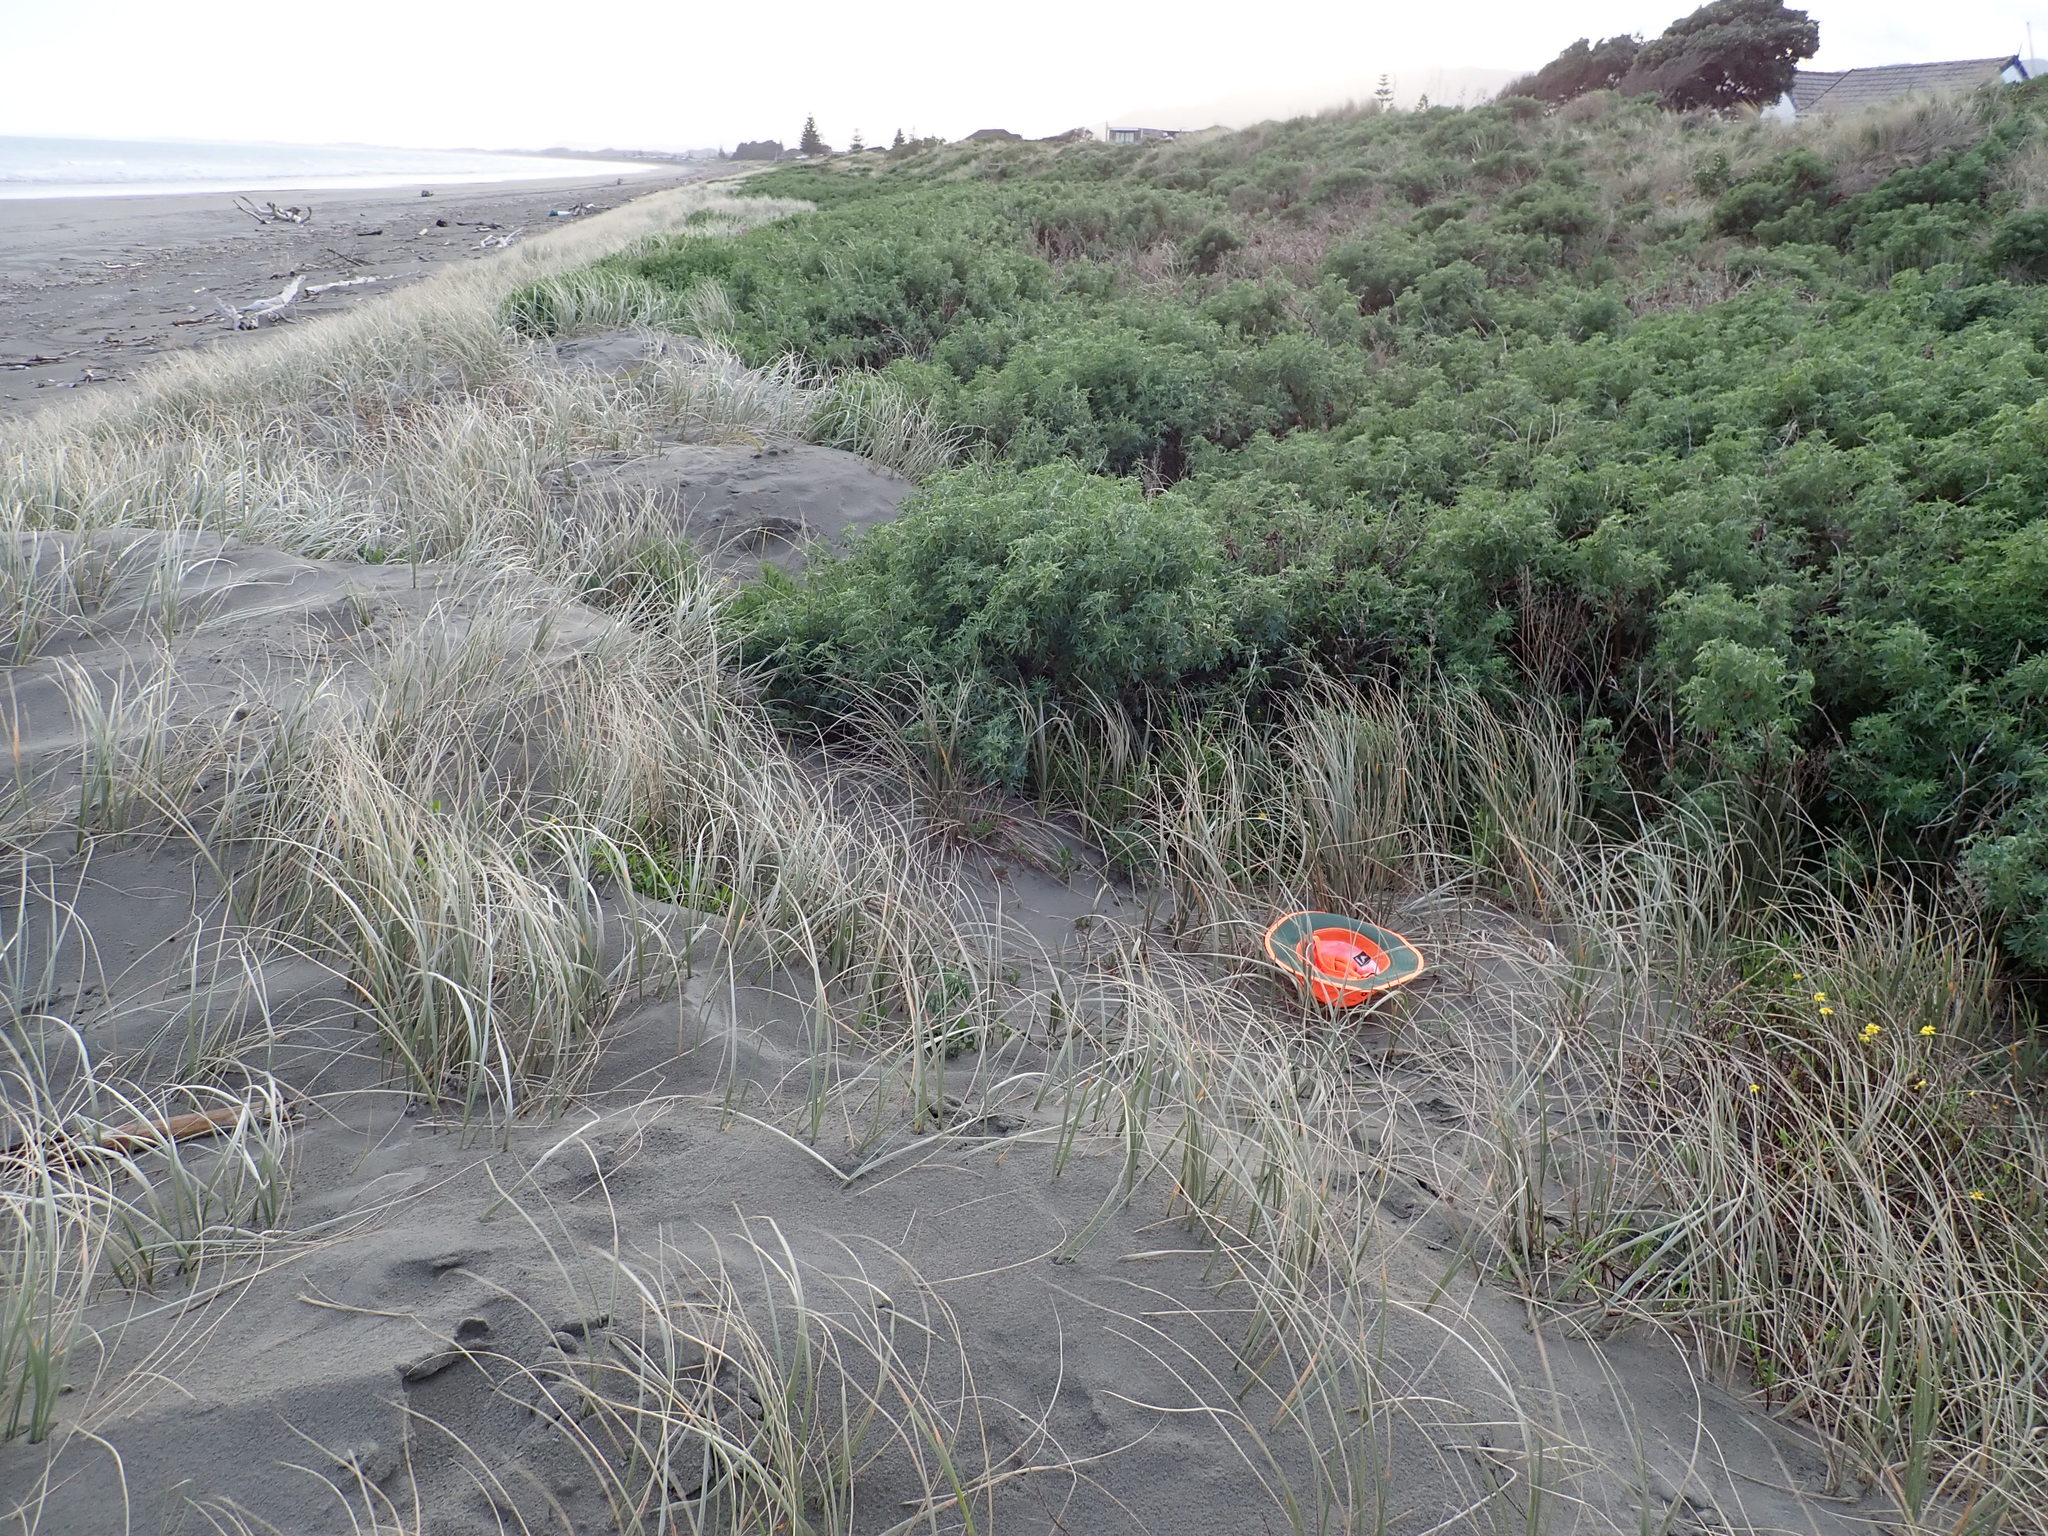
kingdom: Plantae
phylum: Tracheophyta
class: Liliopsida
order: Poales
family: Poaceae
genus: Spinifex
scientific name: Spinifex sericeus
